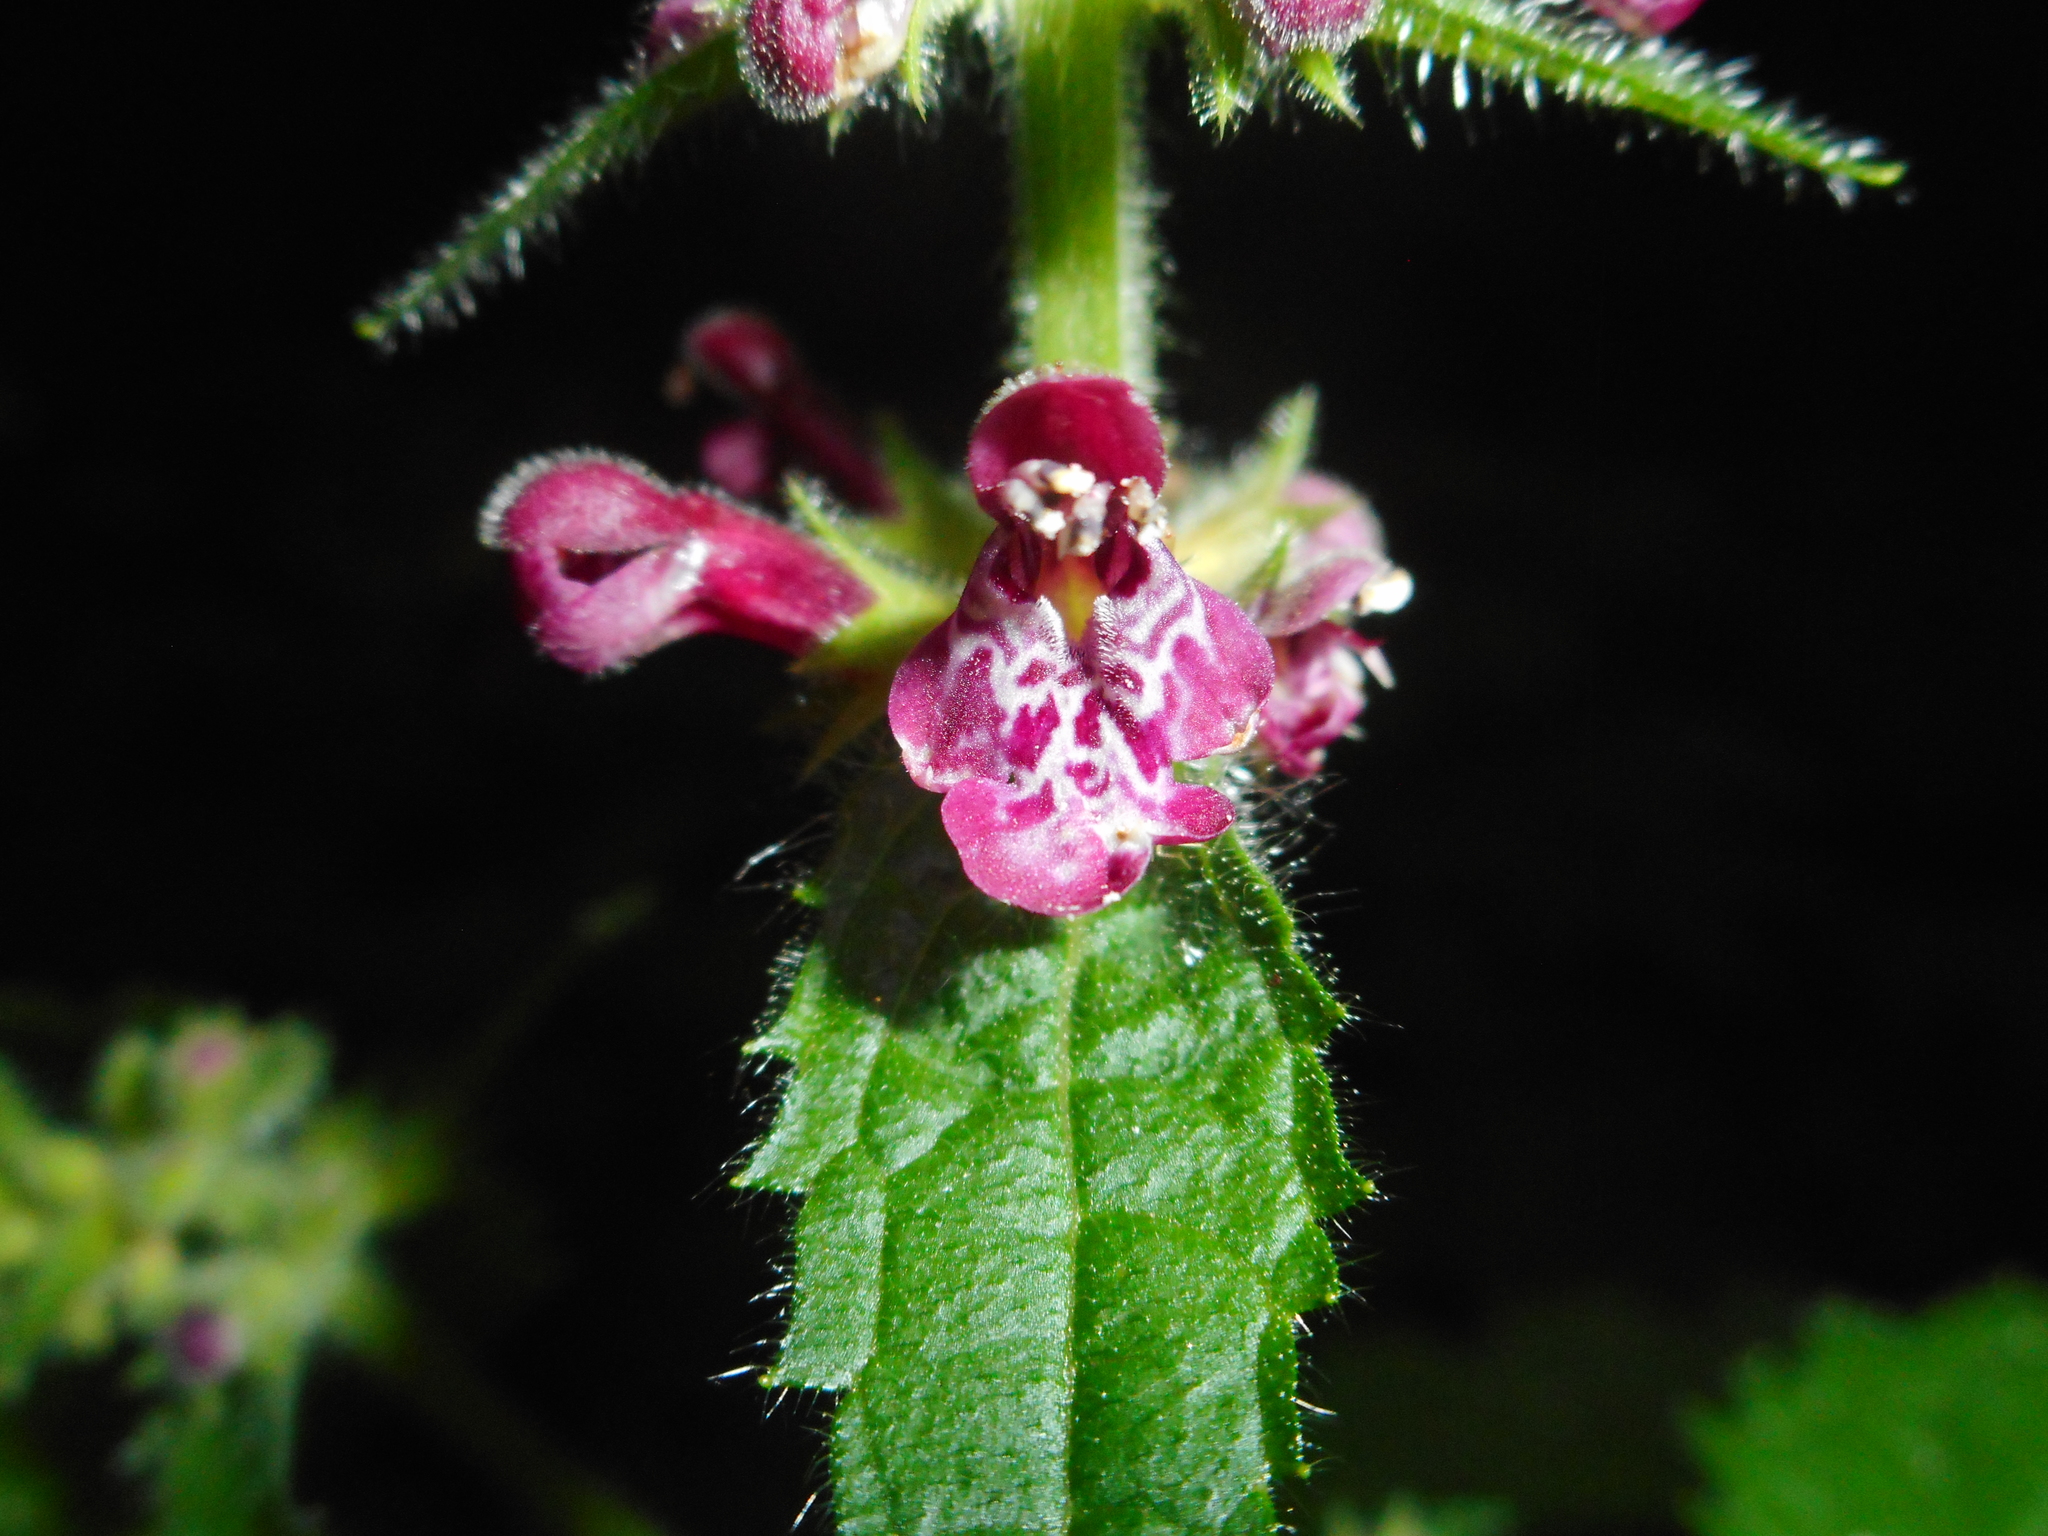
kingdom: Plantae
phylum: Tracheophyta
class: Magnoliopsida
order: Lamiales
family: Lamiaceae
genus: Stachys
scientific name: Stachys sylvatica
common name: Hedge woundwort
